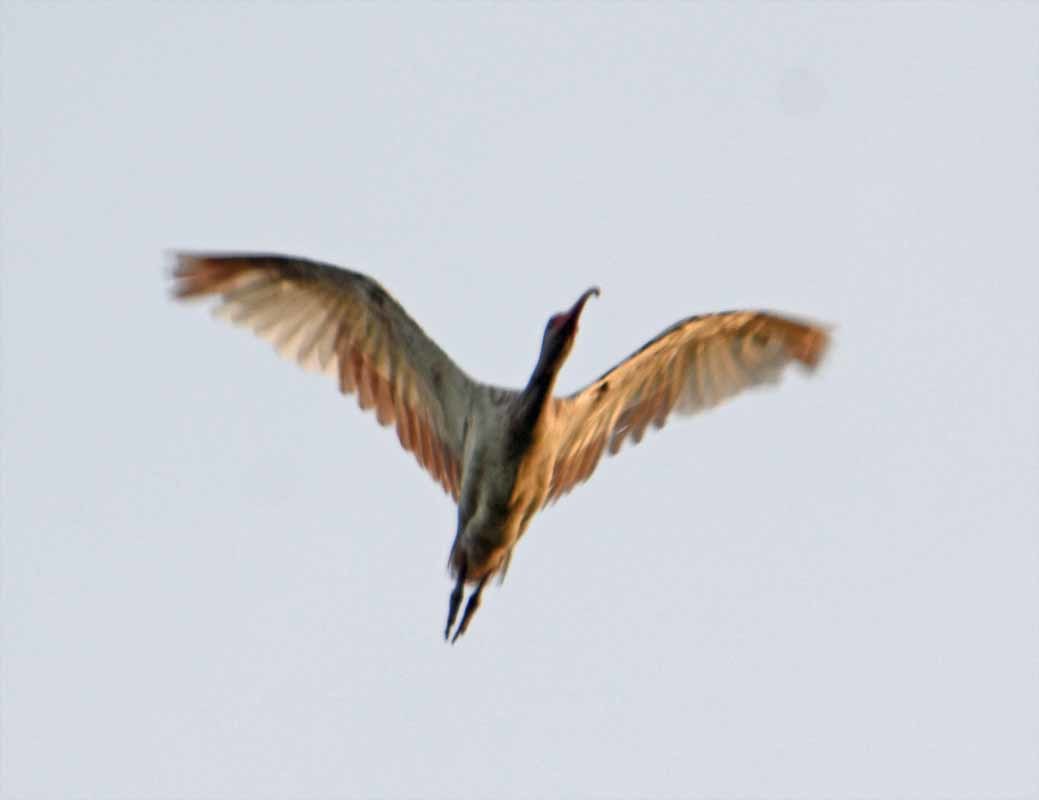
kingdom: Animalia
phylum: Chordata
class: Aves
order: Pelecaniformes
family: Threskiornithidae
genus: Eudocimus
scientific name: Eudocimus albus
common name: White ibis
